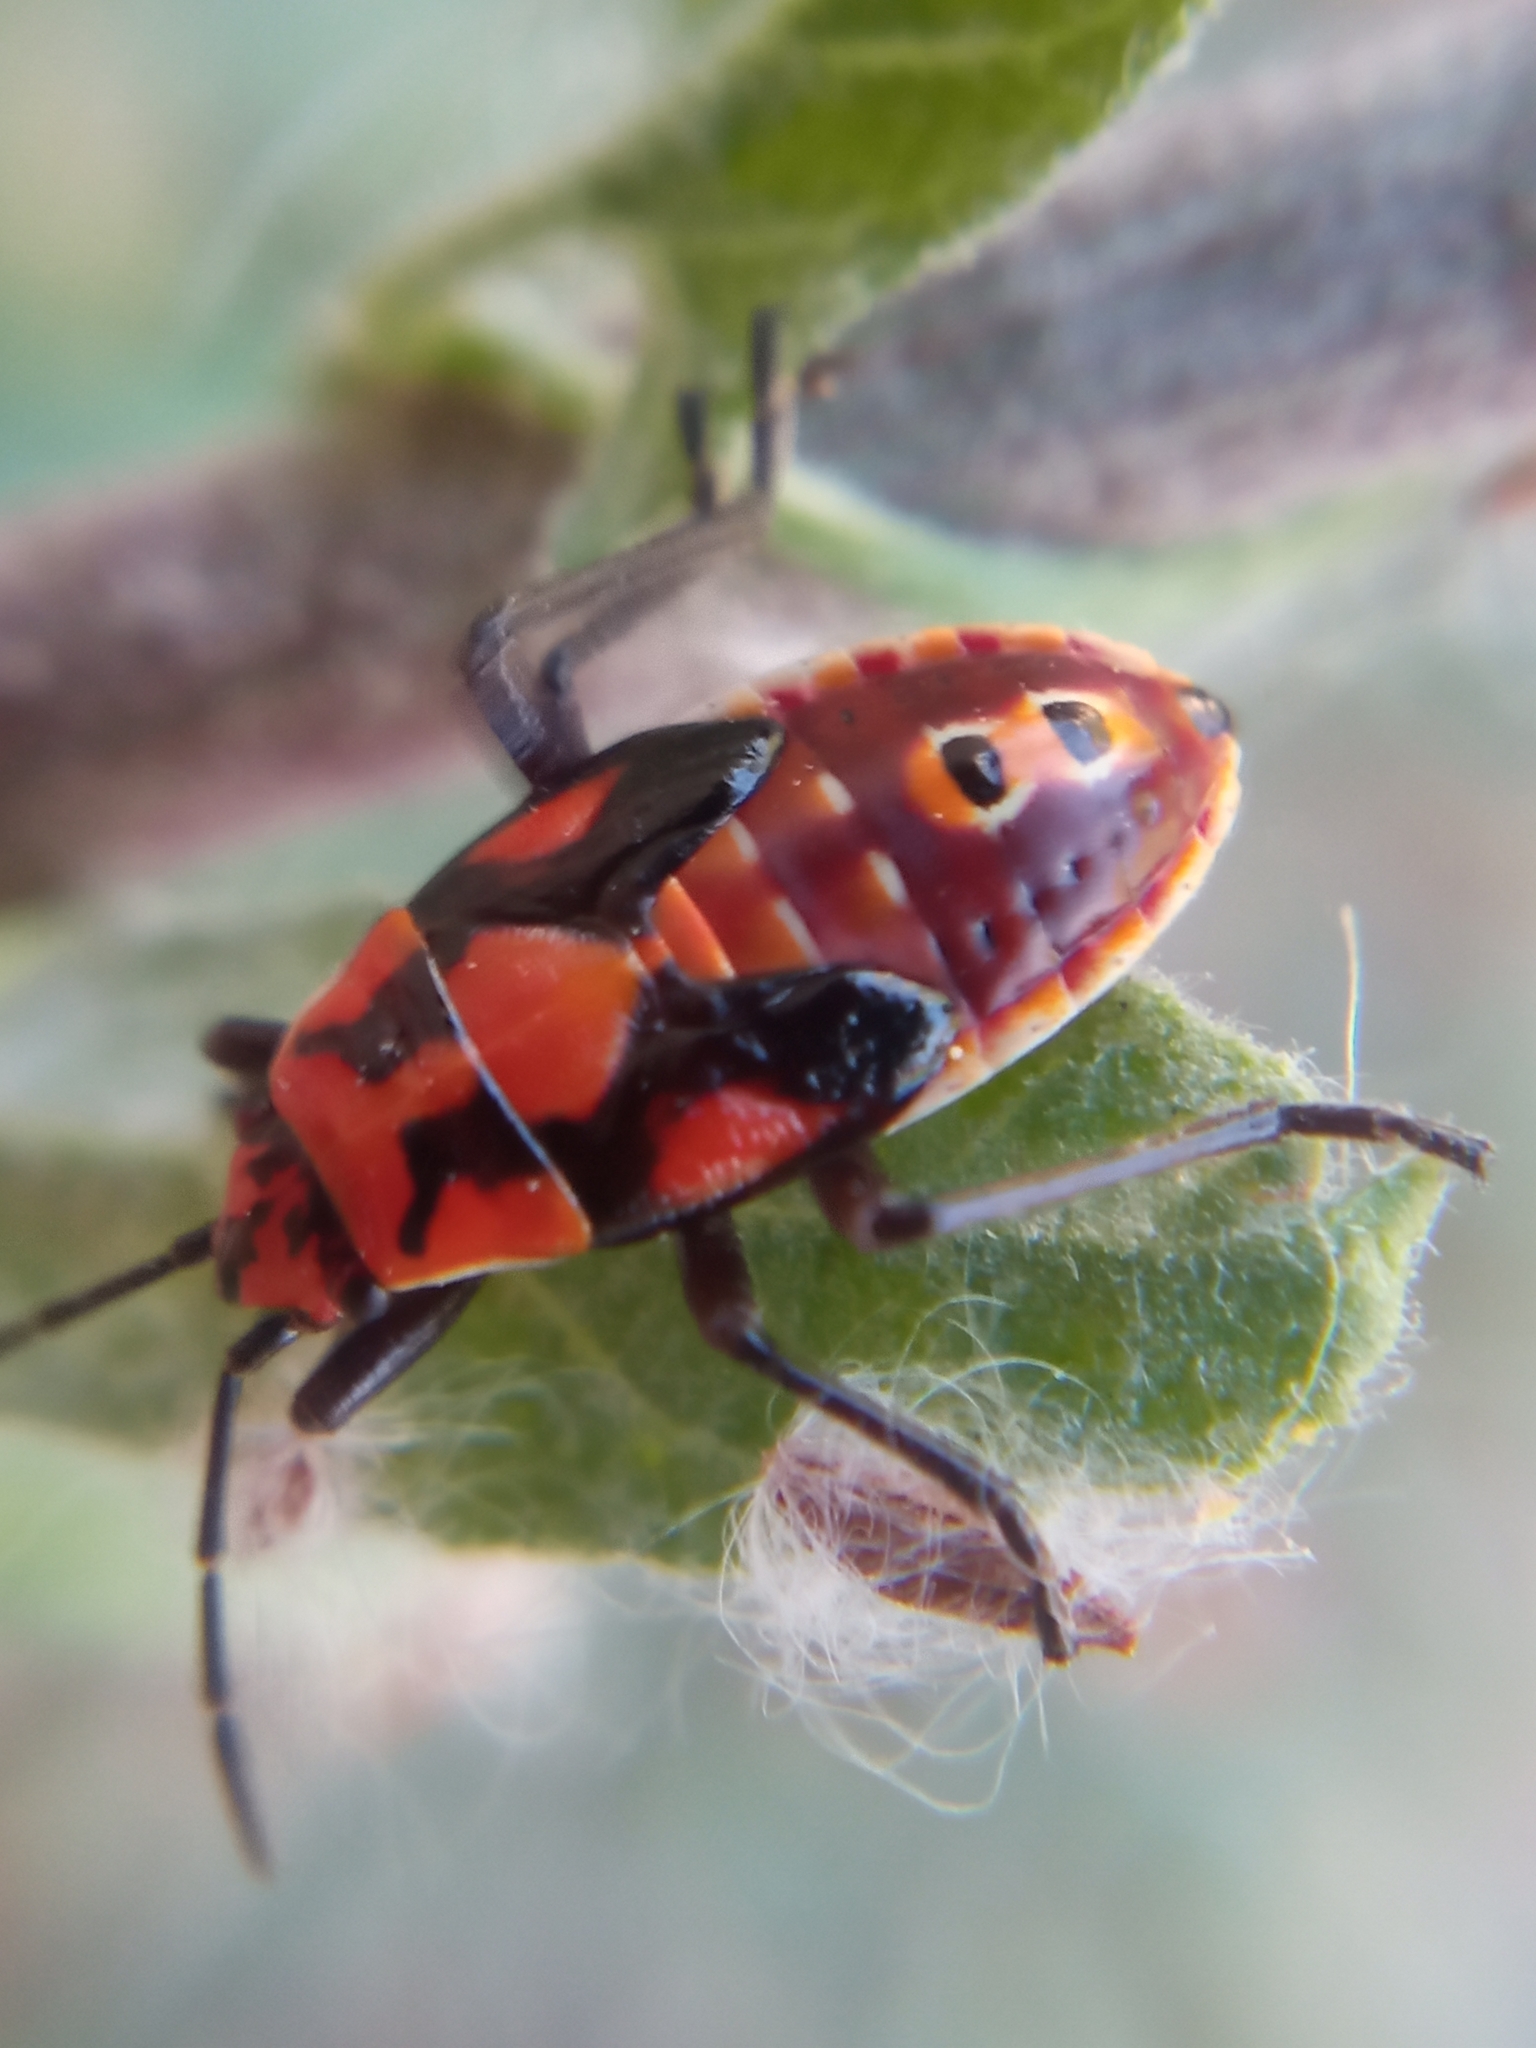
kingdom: Animalia
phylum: Arthropoda
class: Insecta
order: Hemiptera
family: Lygaeidae
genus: Spilostethus
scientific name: Spilostethus pandurus
